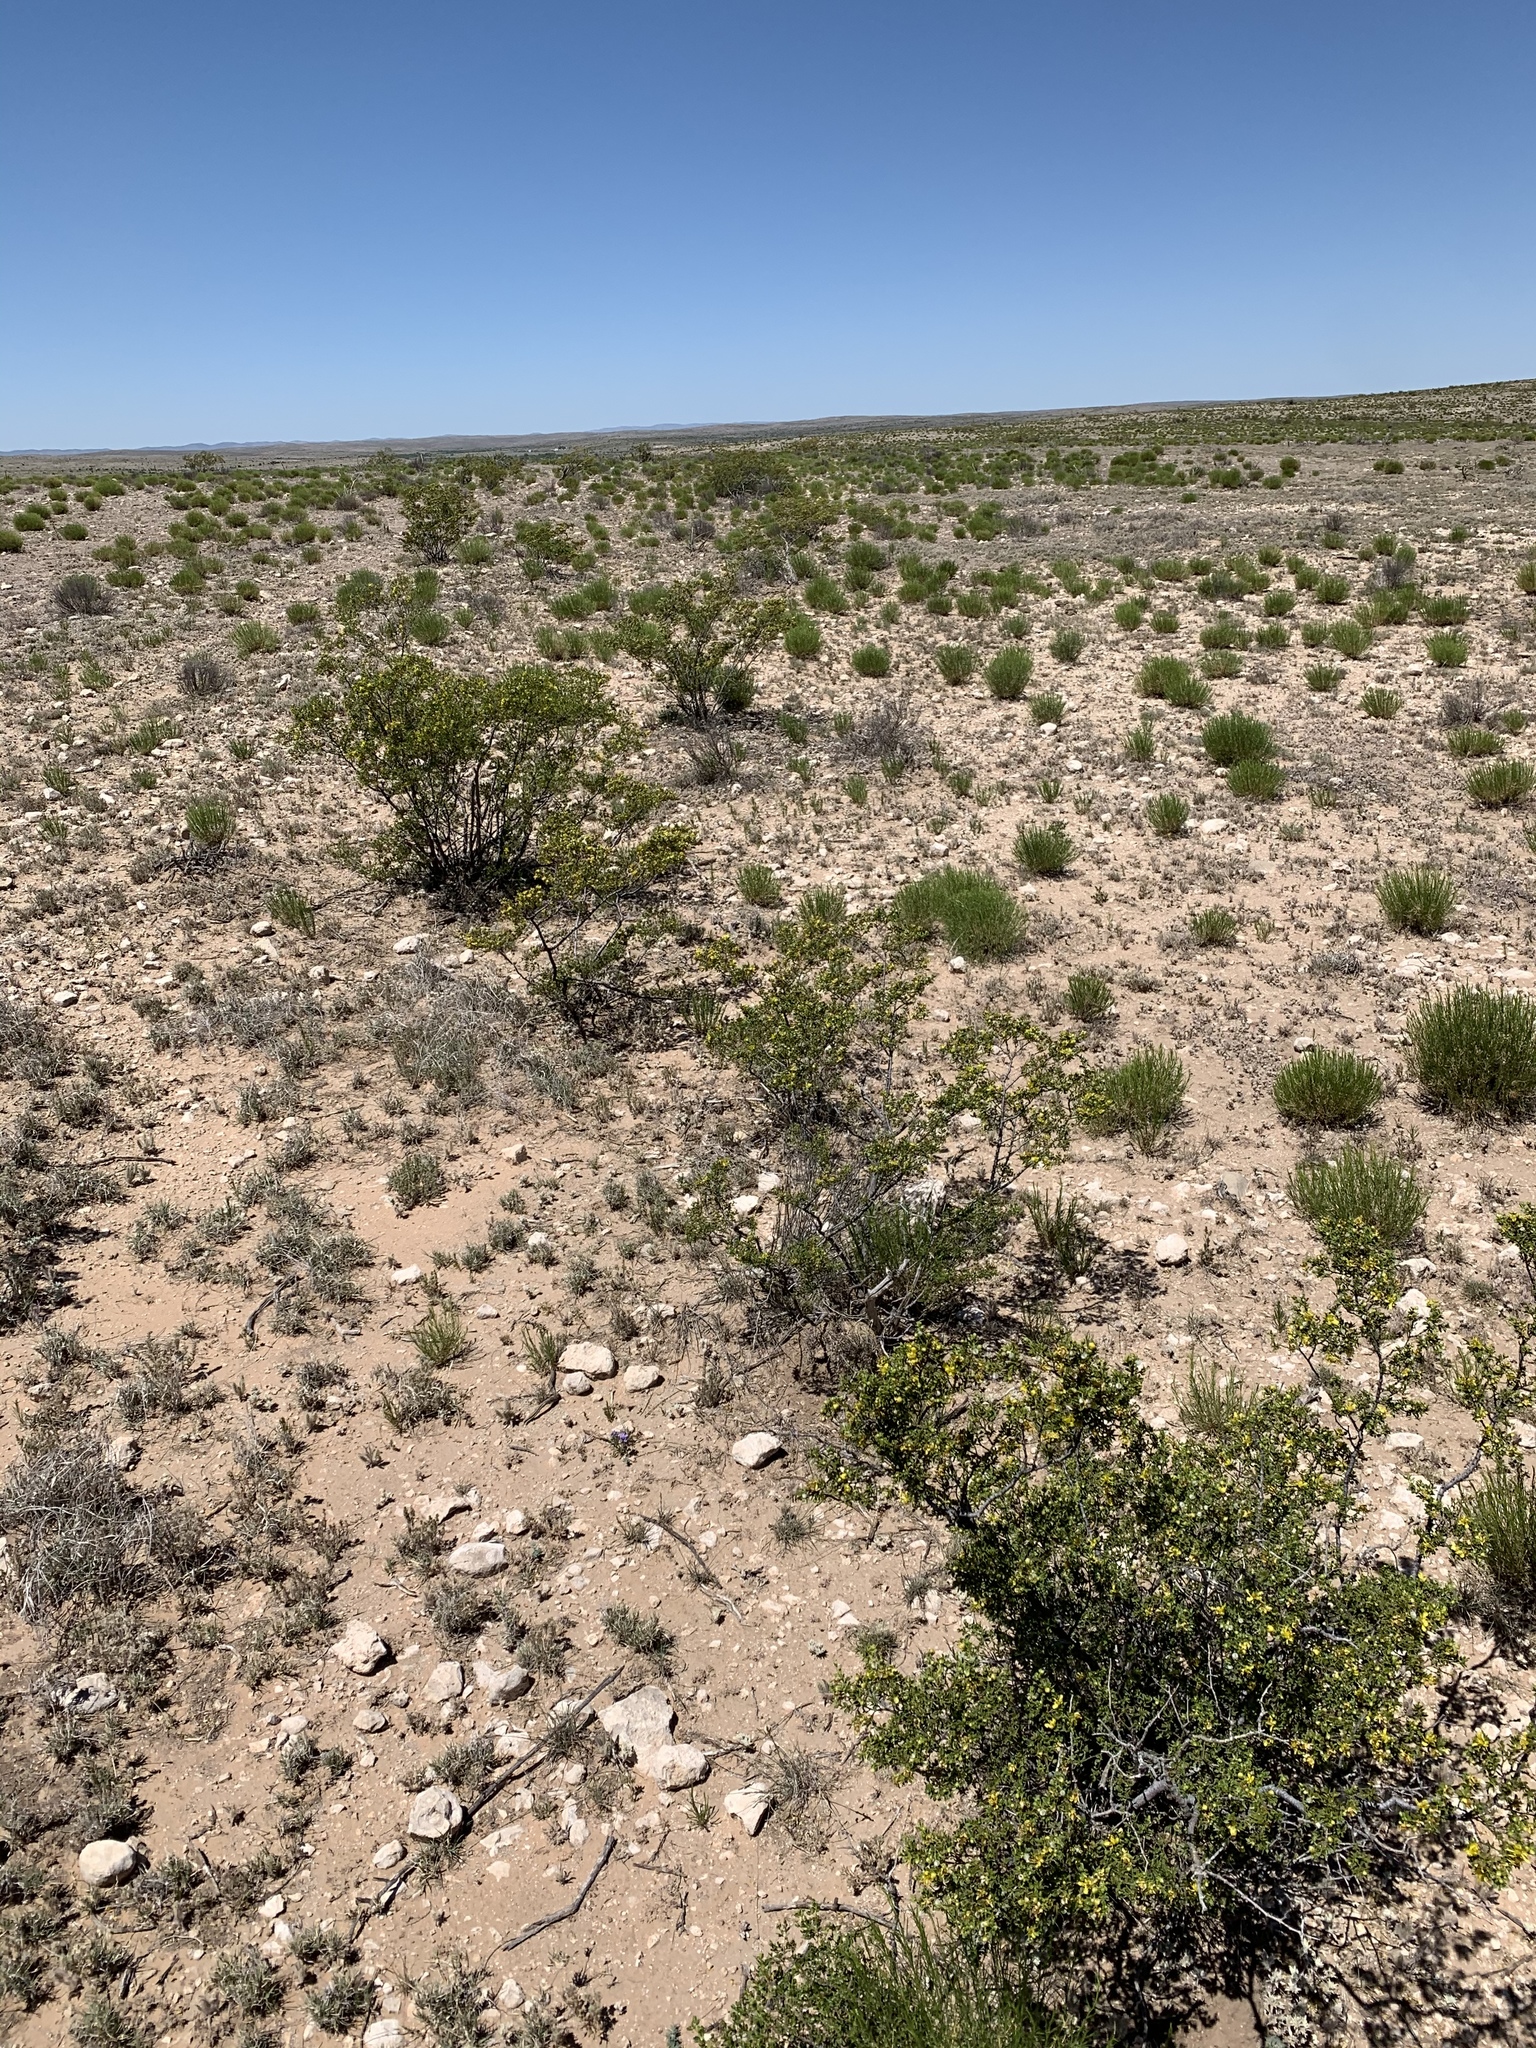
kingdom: Plantae
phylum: Tracheophyta
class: Magnoliopsida
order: Zygophyllales
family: Zygophyllaceae
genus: Larrea
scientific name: Larrea tridentata
